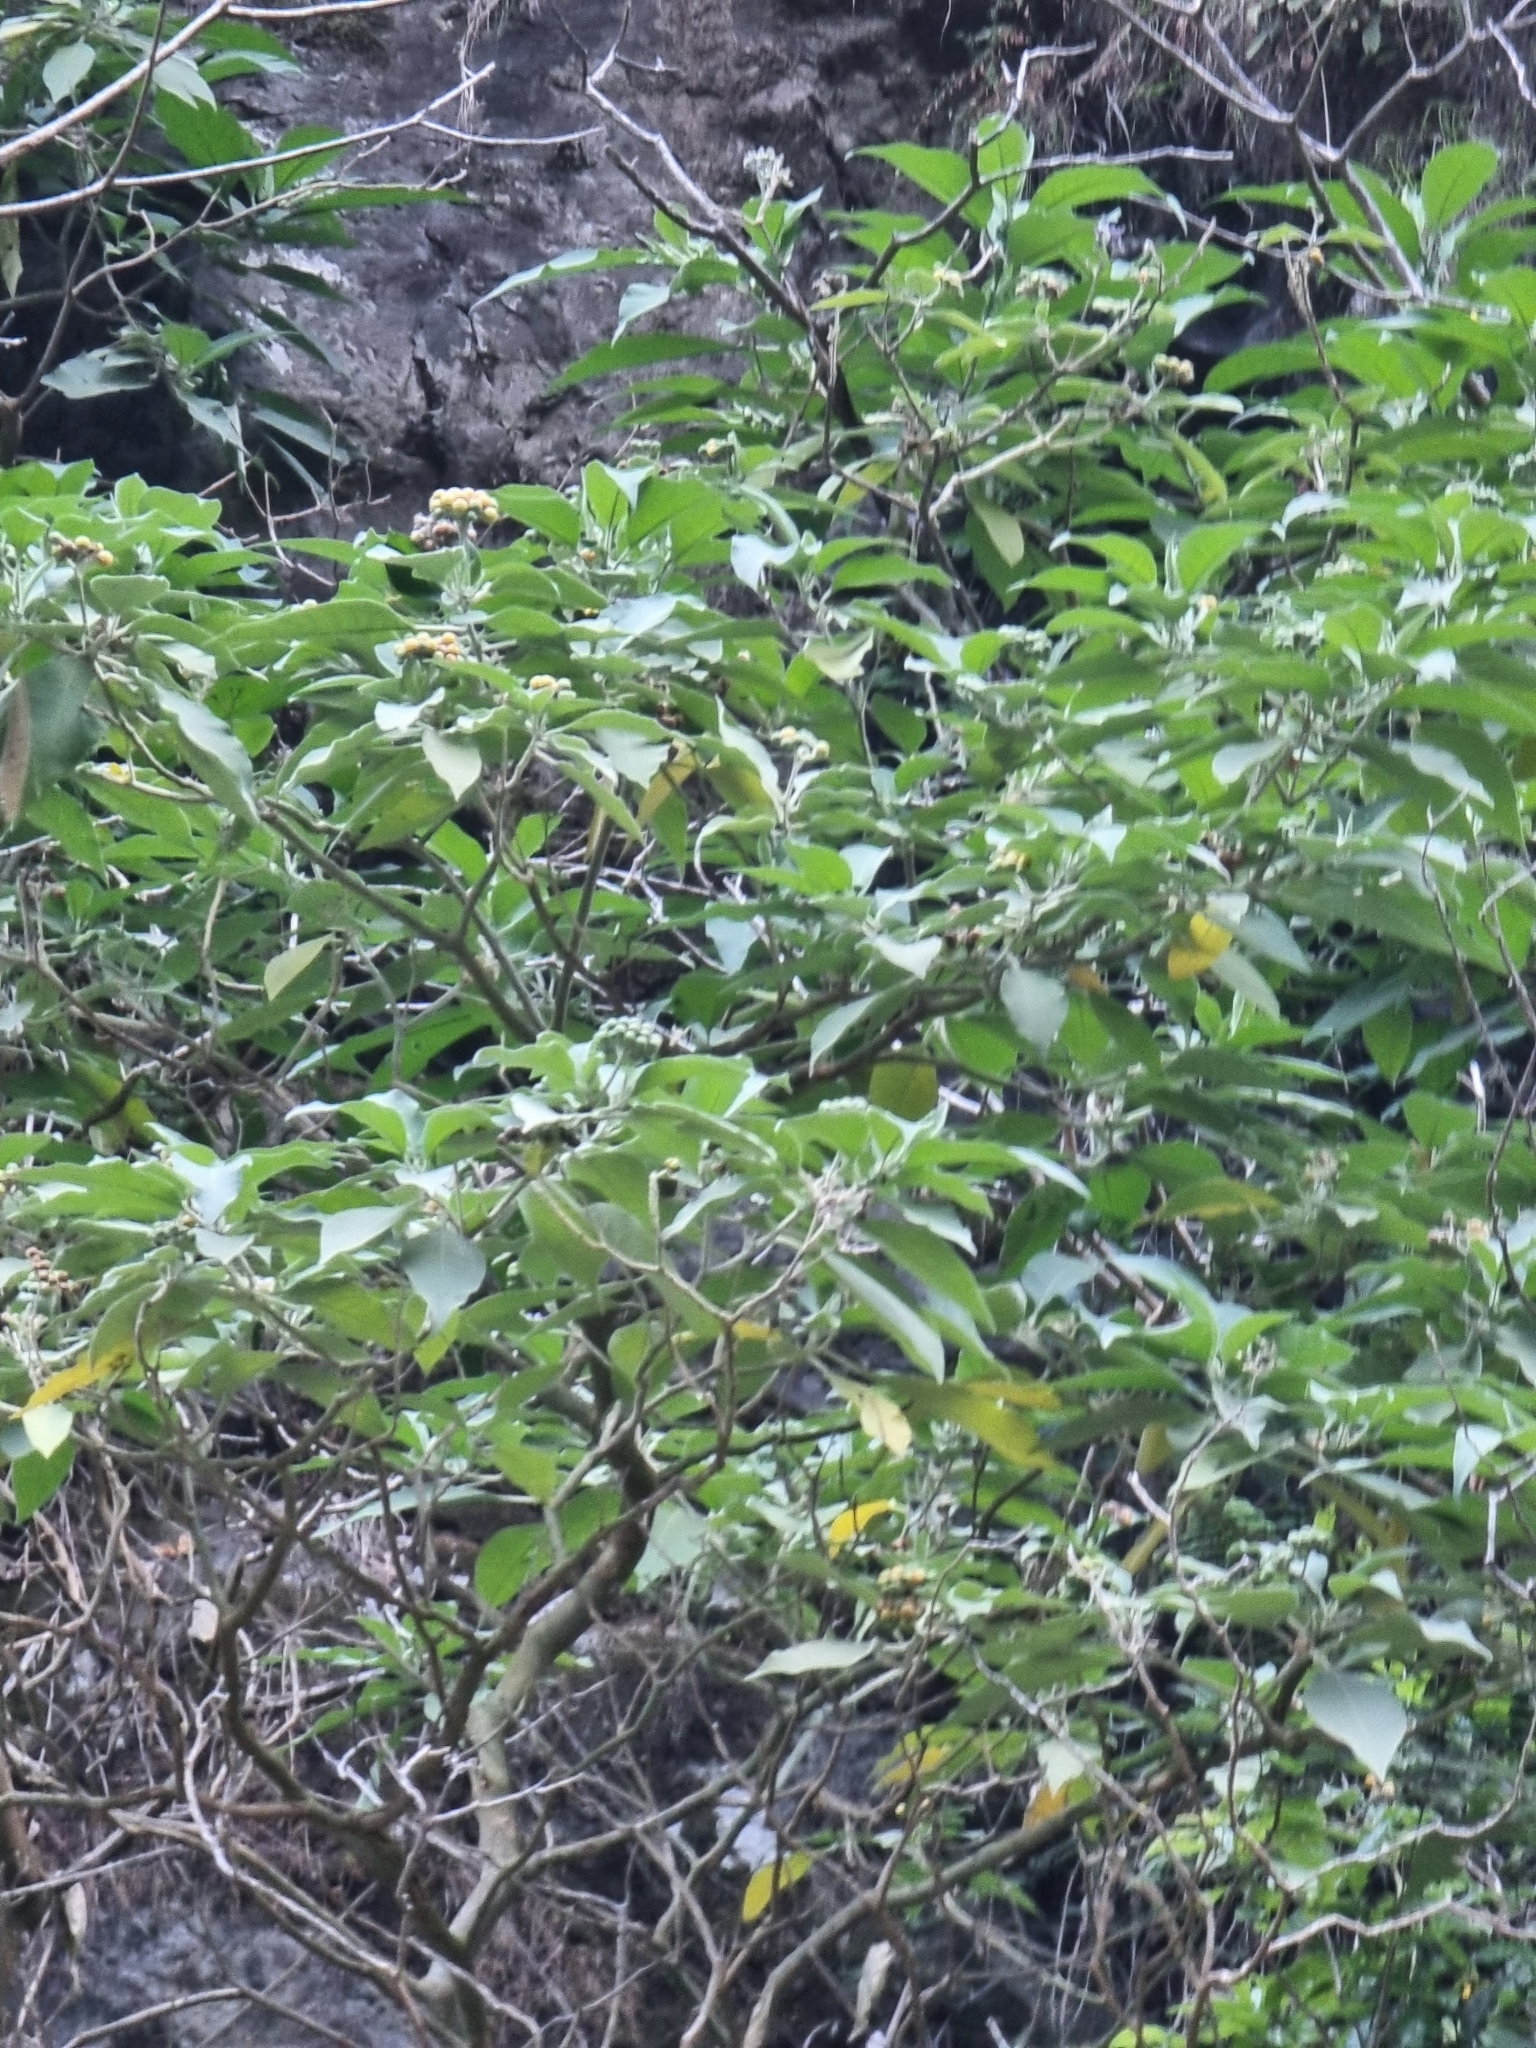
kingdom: Plantae
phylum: Tracheophyta
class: Magnoliopsida
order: Solanales
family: Solanaceae
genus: Solanum
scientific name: Solanum mauritianum
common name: Earleaf nightshade
